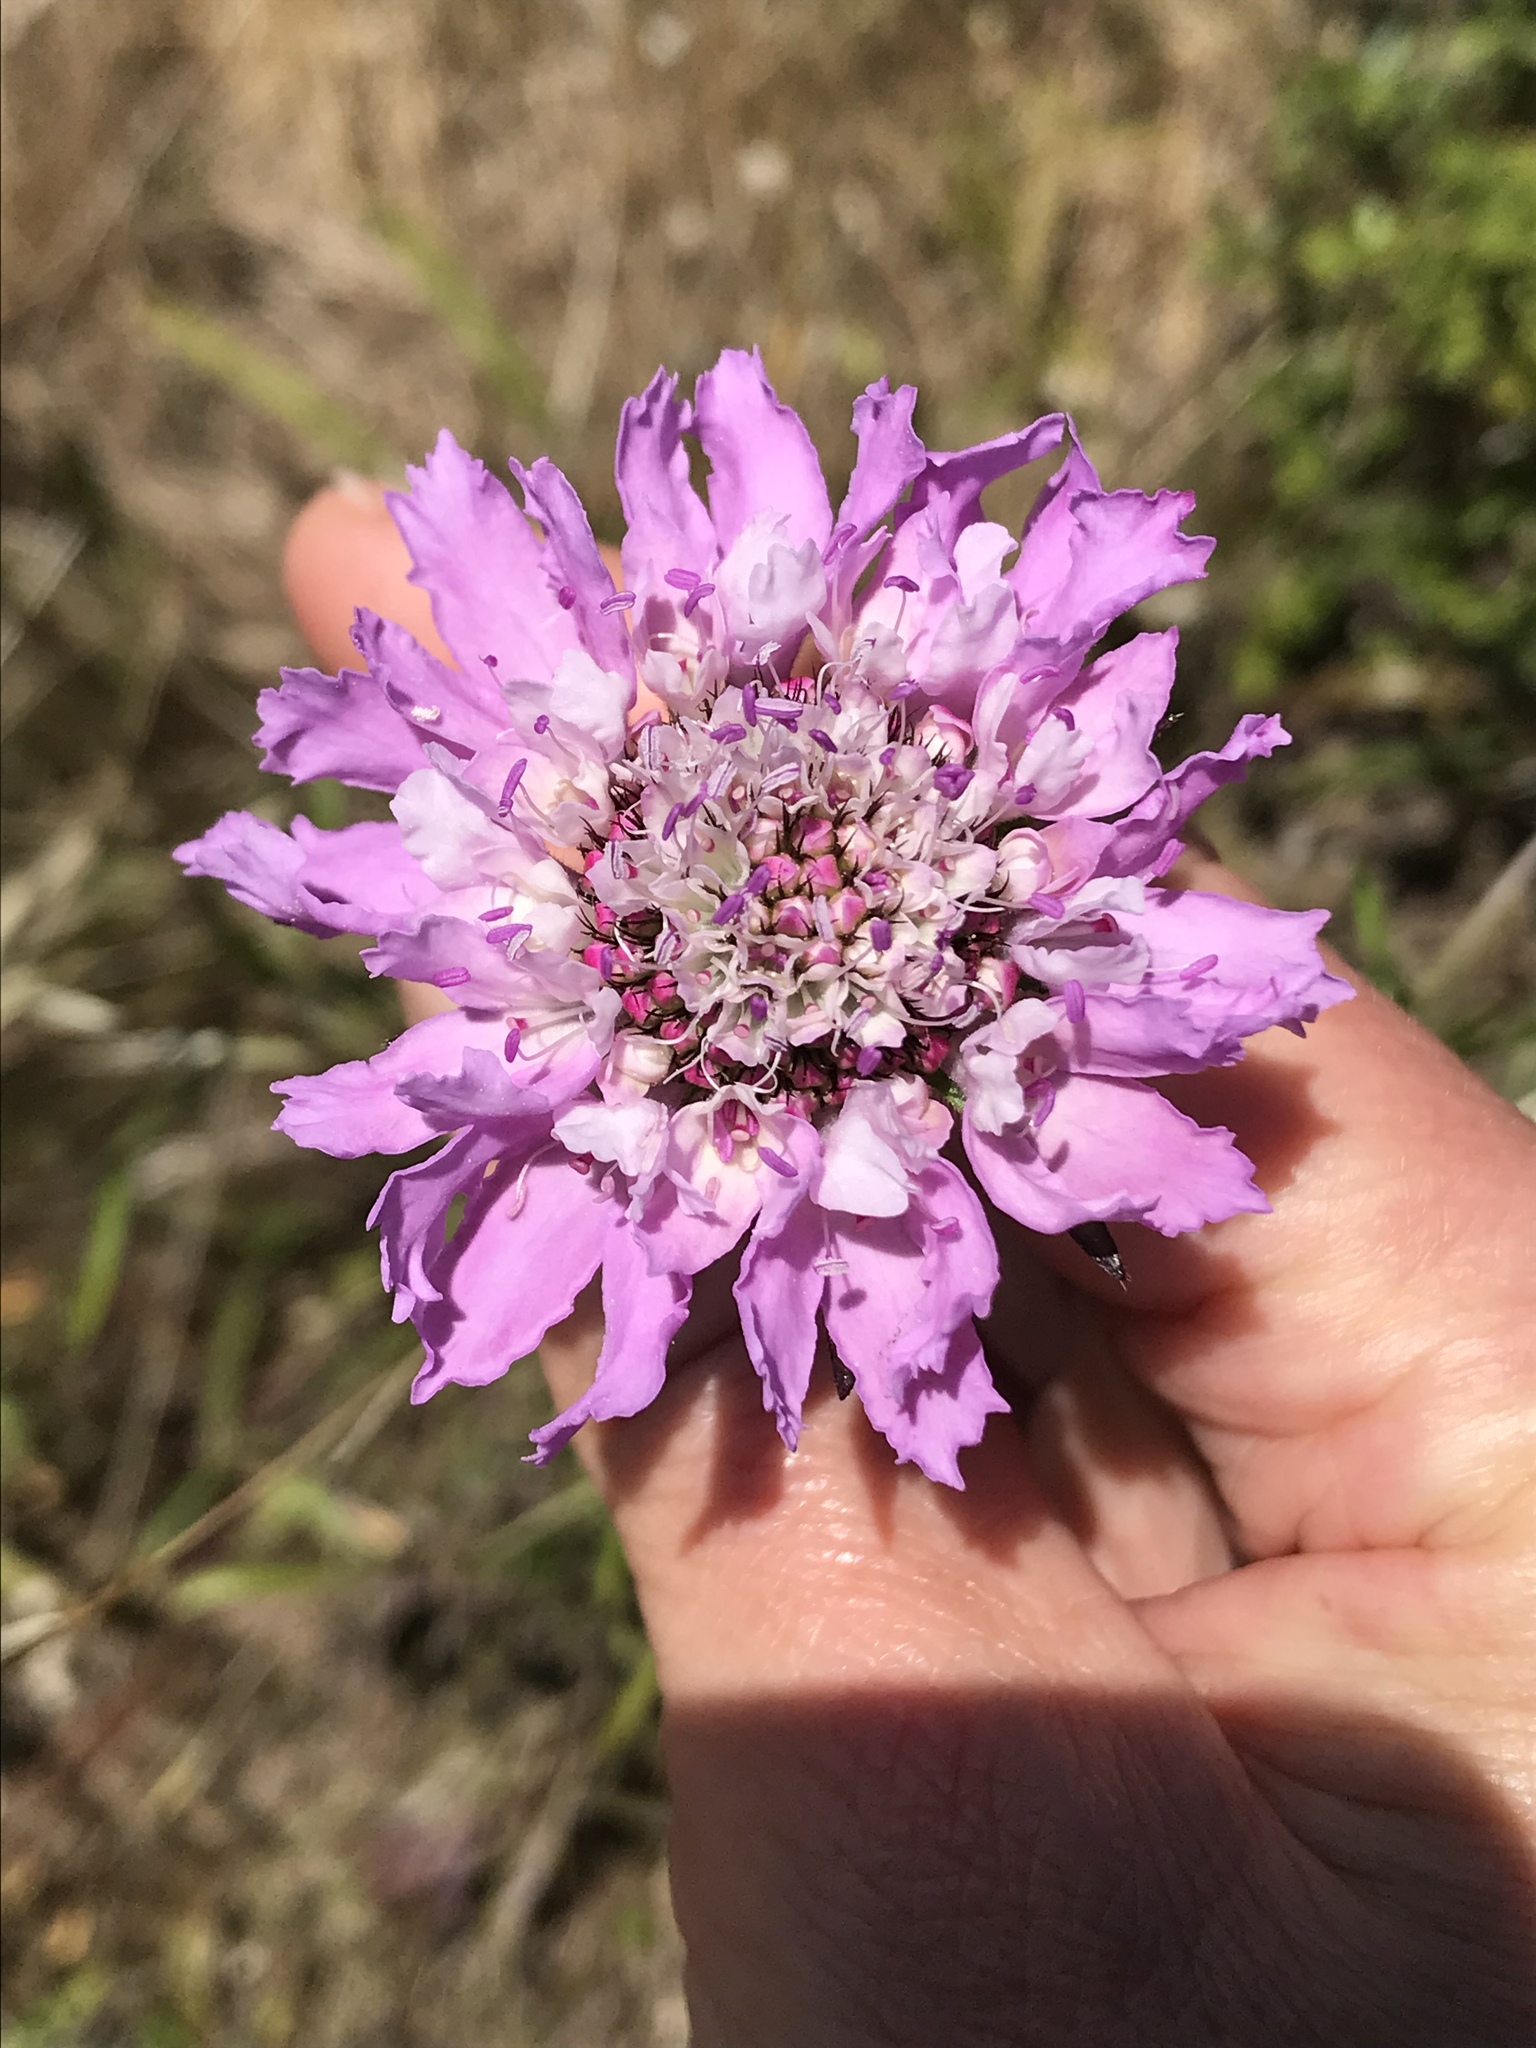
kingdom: Plantae
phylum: Tracheophyta
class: Magnoliopsida
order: Dipsacales
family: Caprifoliaceae
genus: Sixalix
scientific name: Sixalix atropurpurea
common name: Sweet scabious
